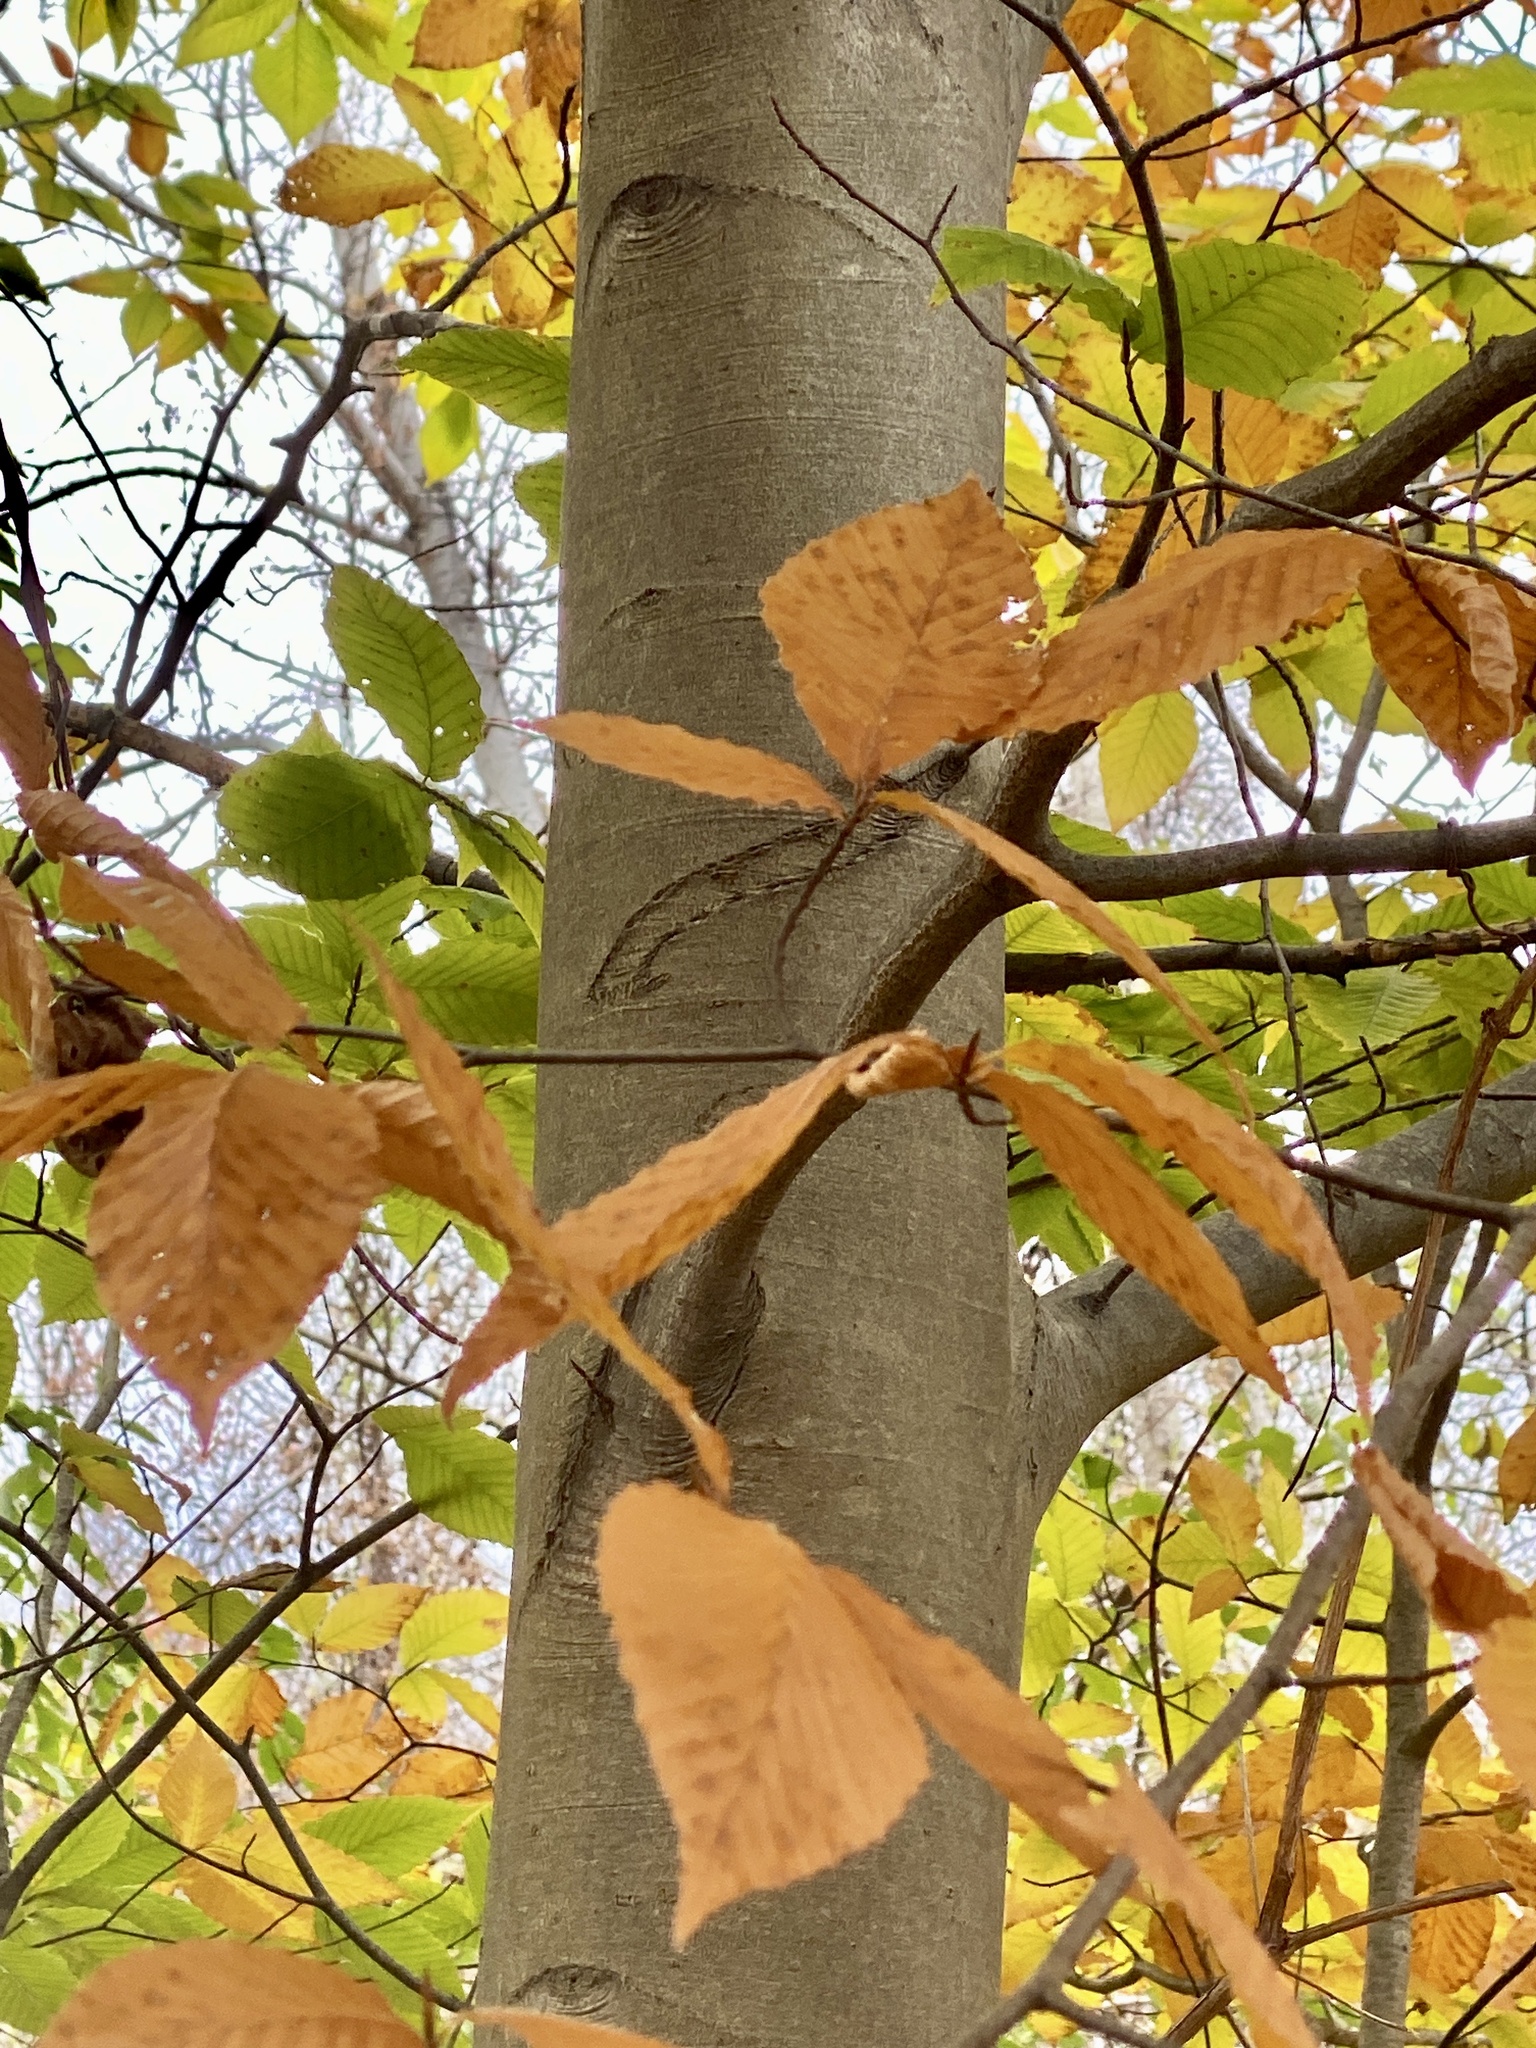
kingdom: Plantae
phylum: Tracheophyta
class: Magnoliopsida
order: Fagales
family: Fagaceae
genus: Fagus
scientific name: Fagus grandifolia
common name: American beech
